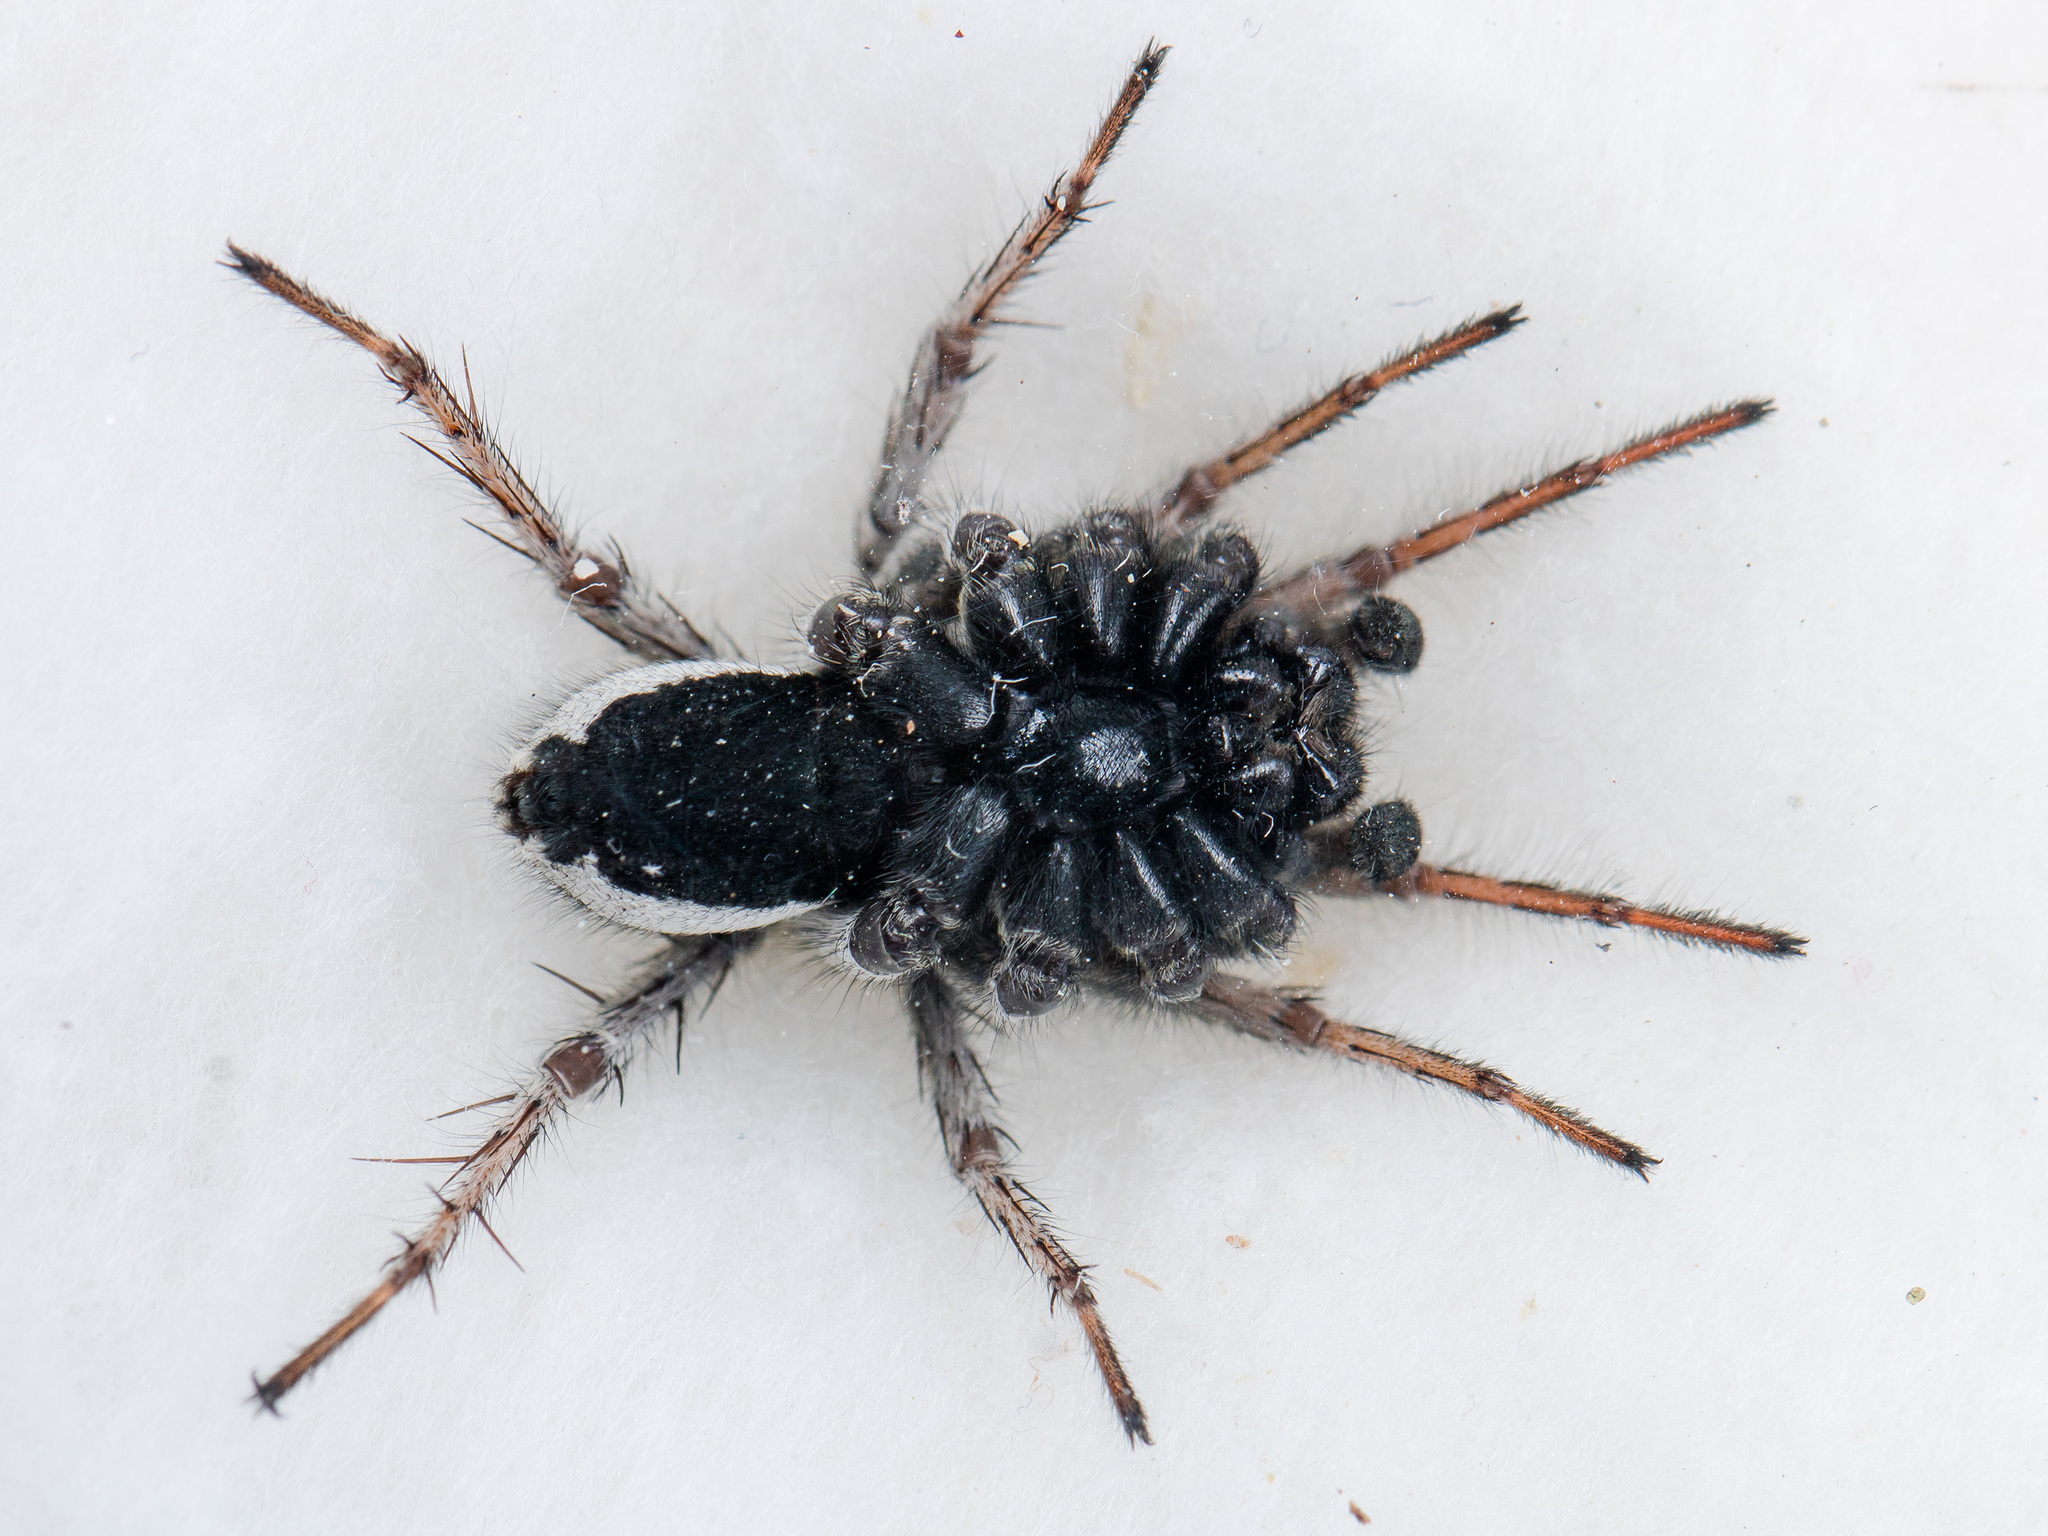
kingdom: Animalia
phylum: Arthropoda
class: Arachnida
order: Araneae
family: Lycosidae
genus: Alopecosa
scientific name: Alopecosa fedotovi
